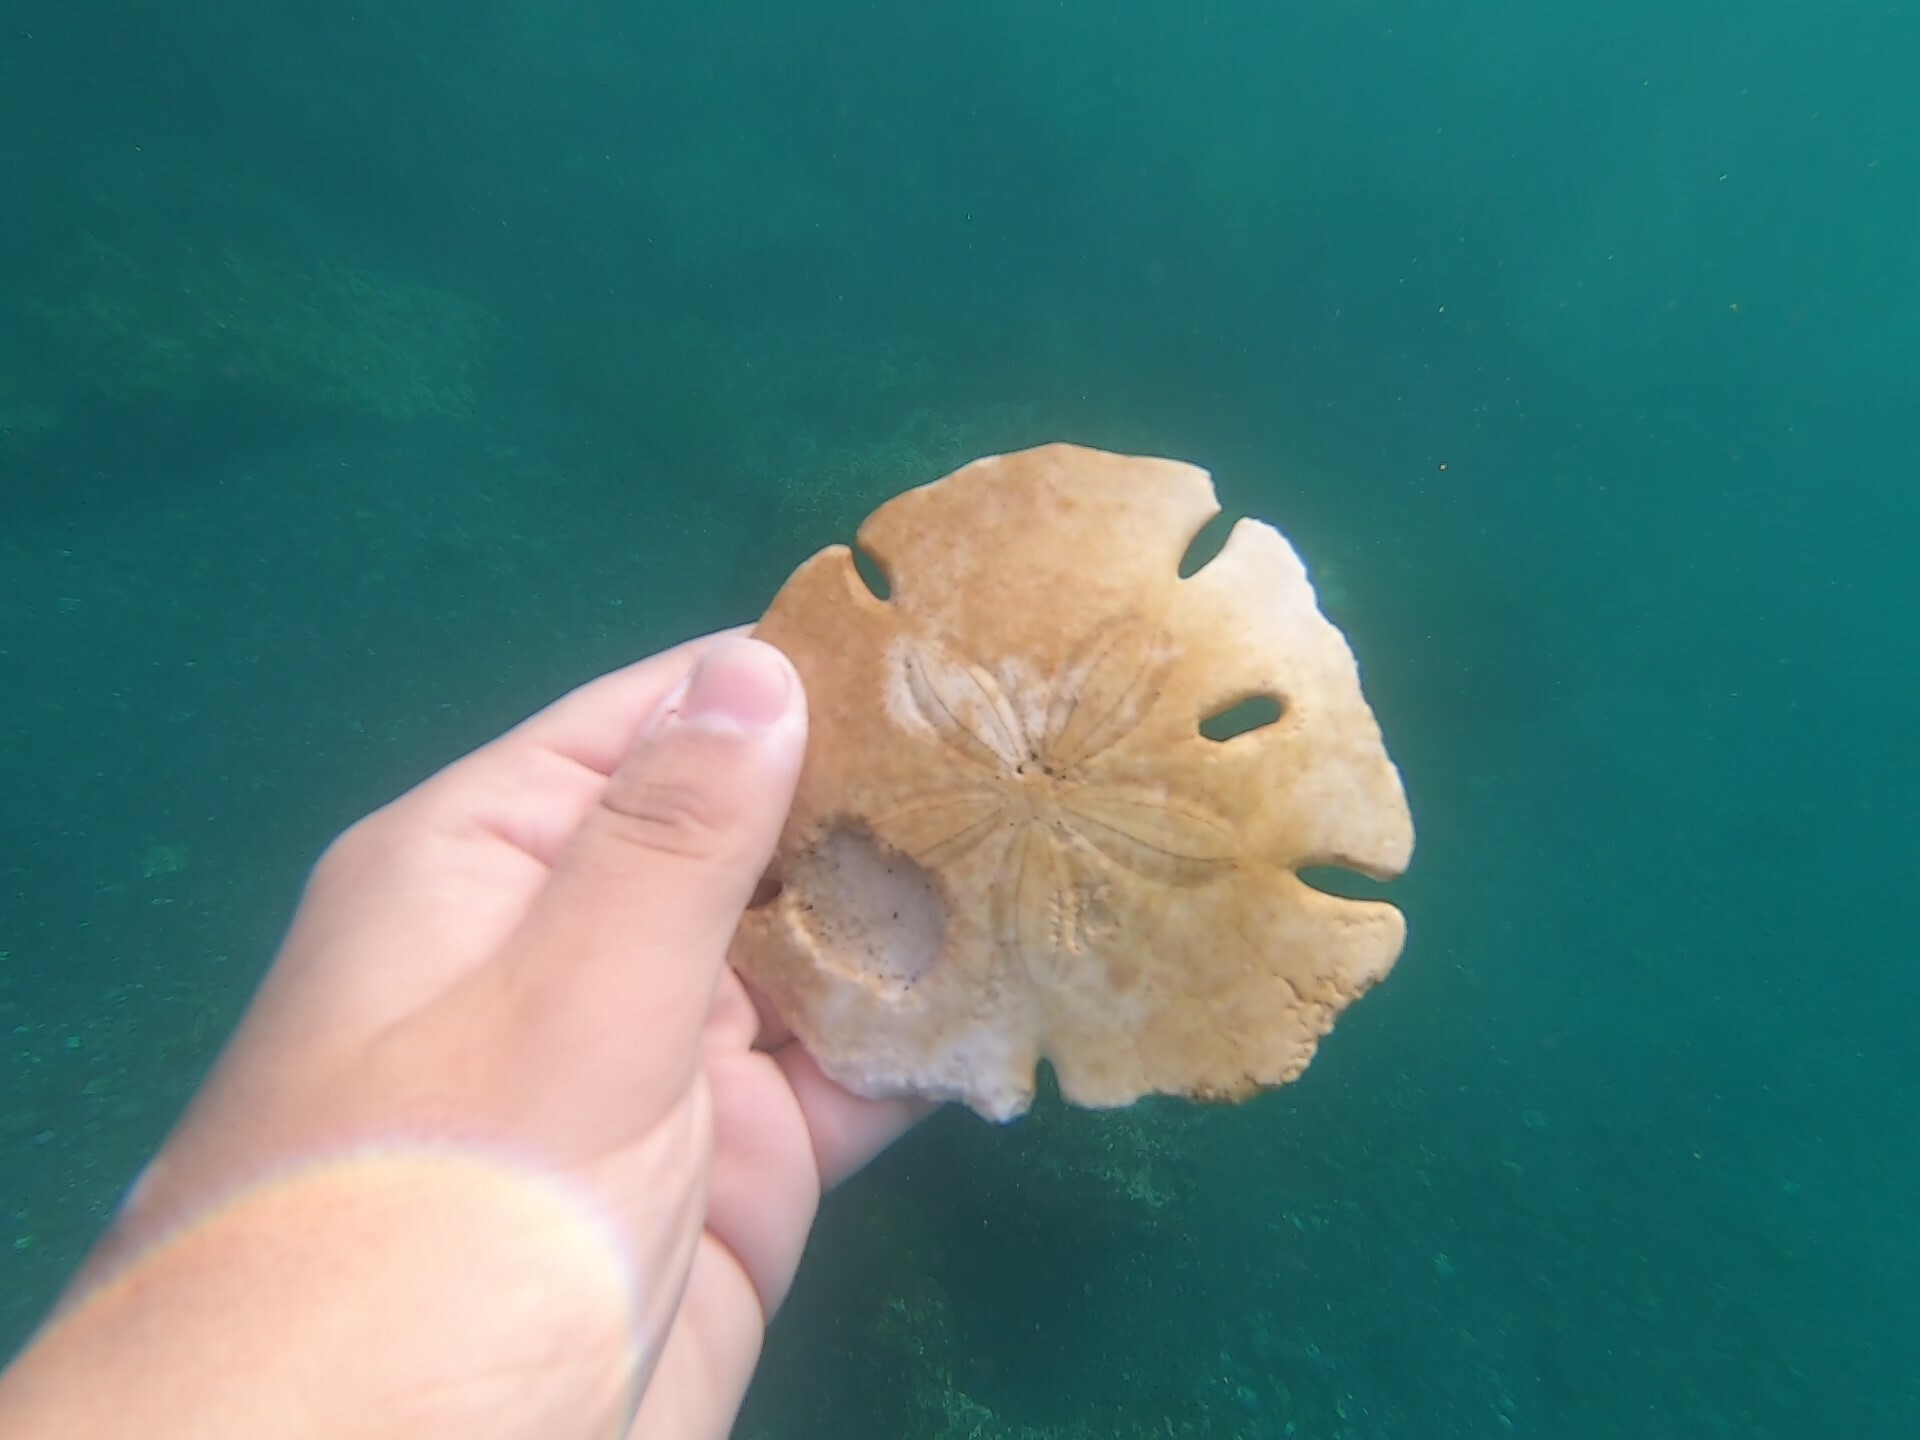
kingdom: Animalia
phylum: Echinodermata
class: Echinoidea
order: Echinolampadacea
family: Mellitidae
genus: Encope
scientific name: Encope galapagensis
